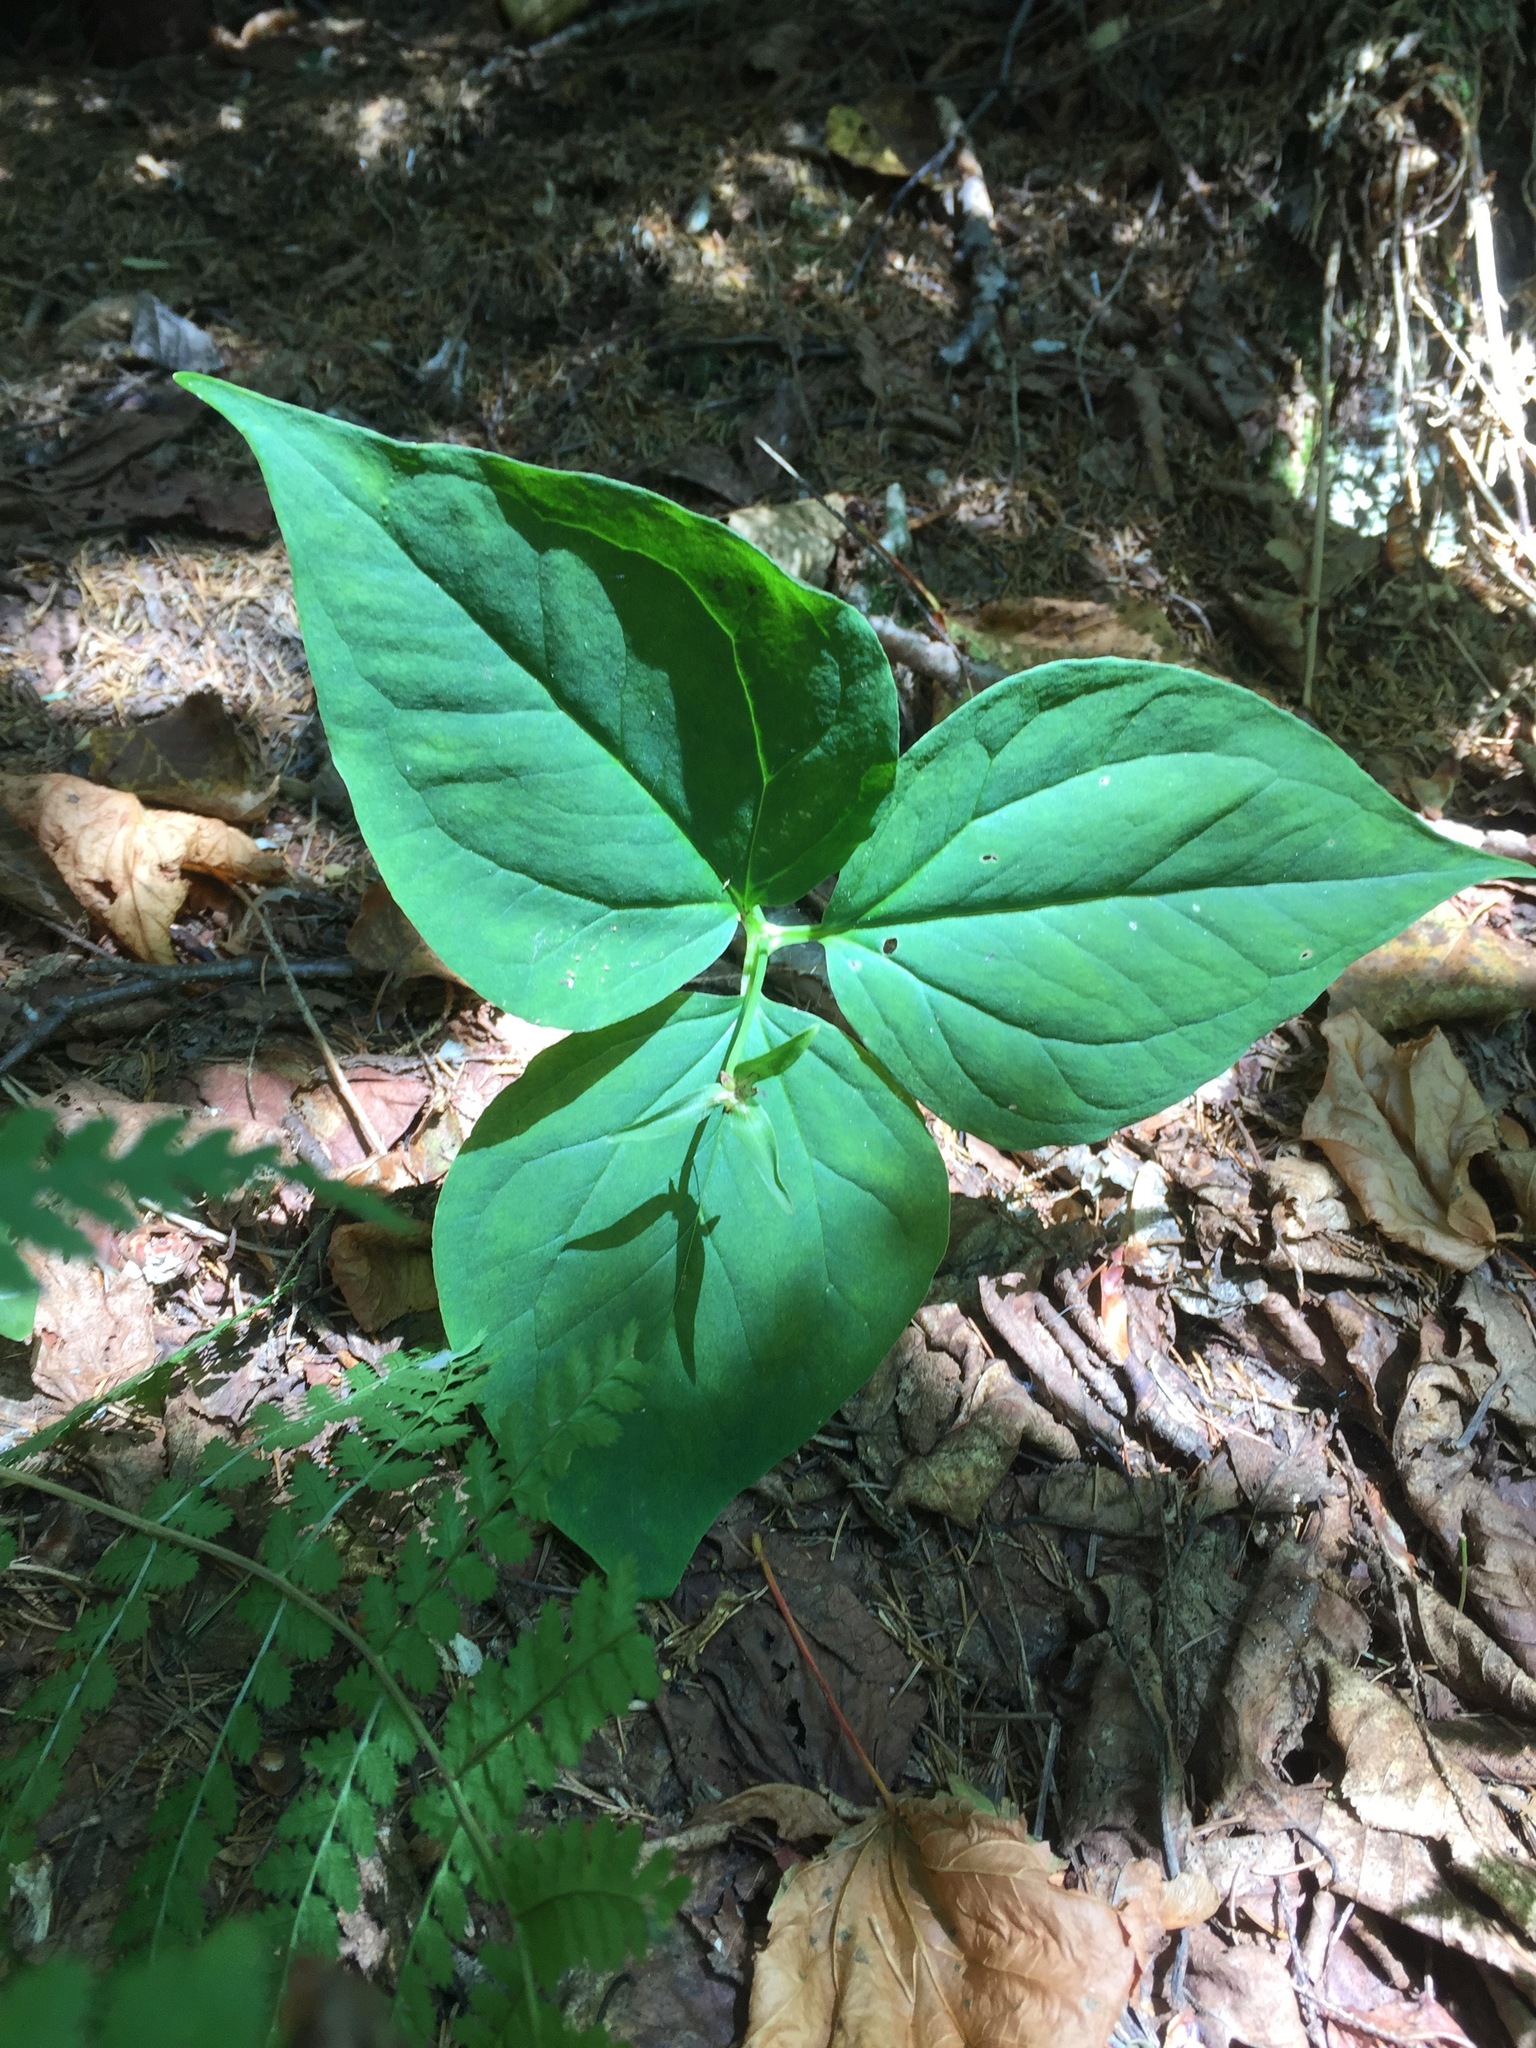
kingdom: Plantae
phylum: Tracheophyta
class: Liliopsida
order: Liliales
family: Melanthiaceae
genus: Trillium
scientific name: Trillium undulatum
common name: Paint trillium
